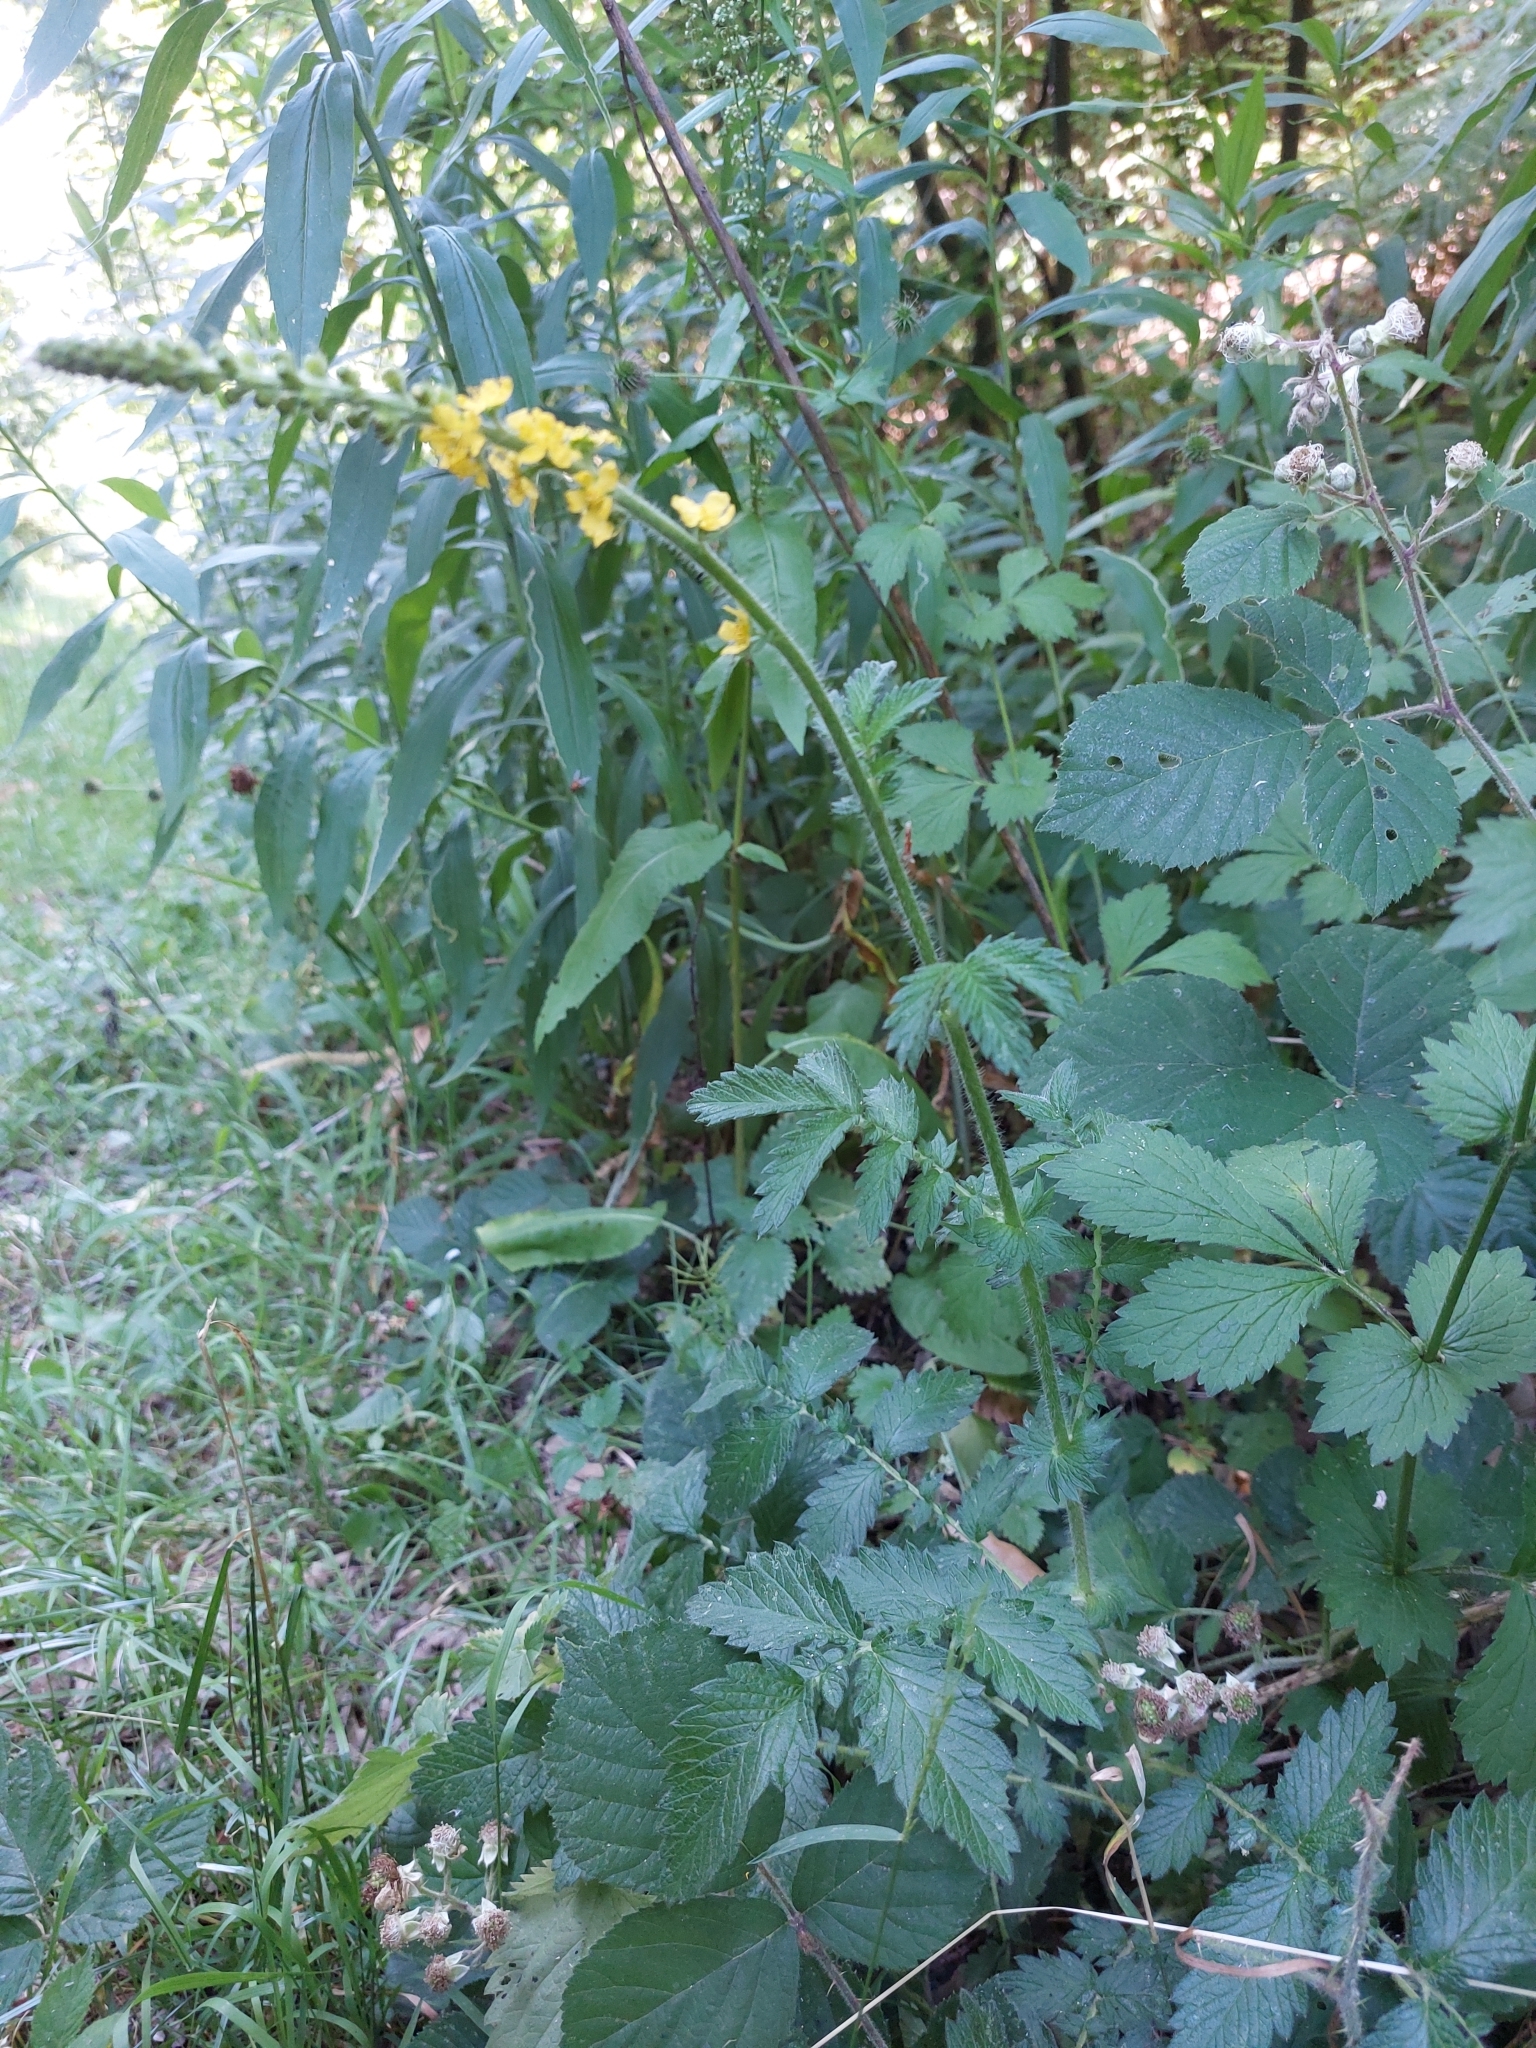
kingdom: Plantae
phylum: Tracheophyta
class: Magnoliopsida
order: Rosales
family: Rosaceae
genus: Agrimonia
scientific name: Agrimonia eupatoria
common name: Agrimony
